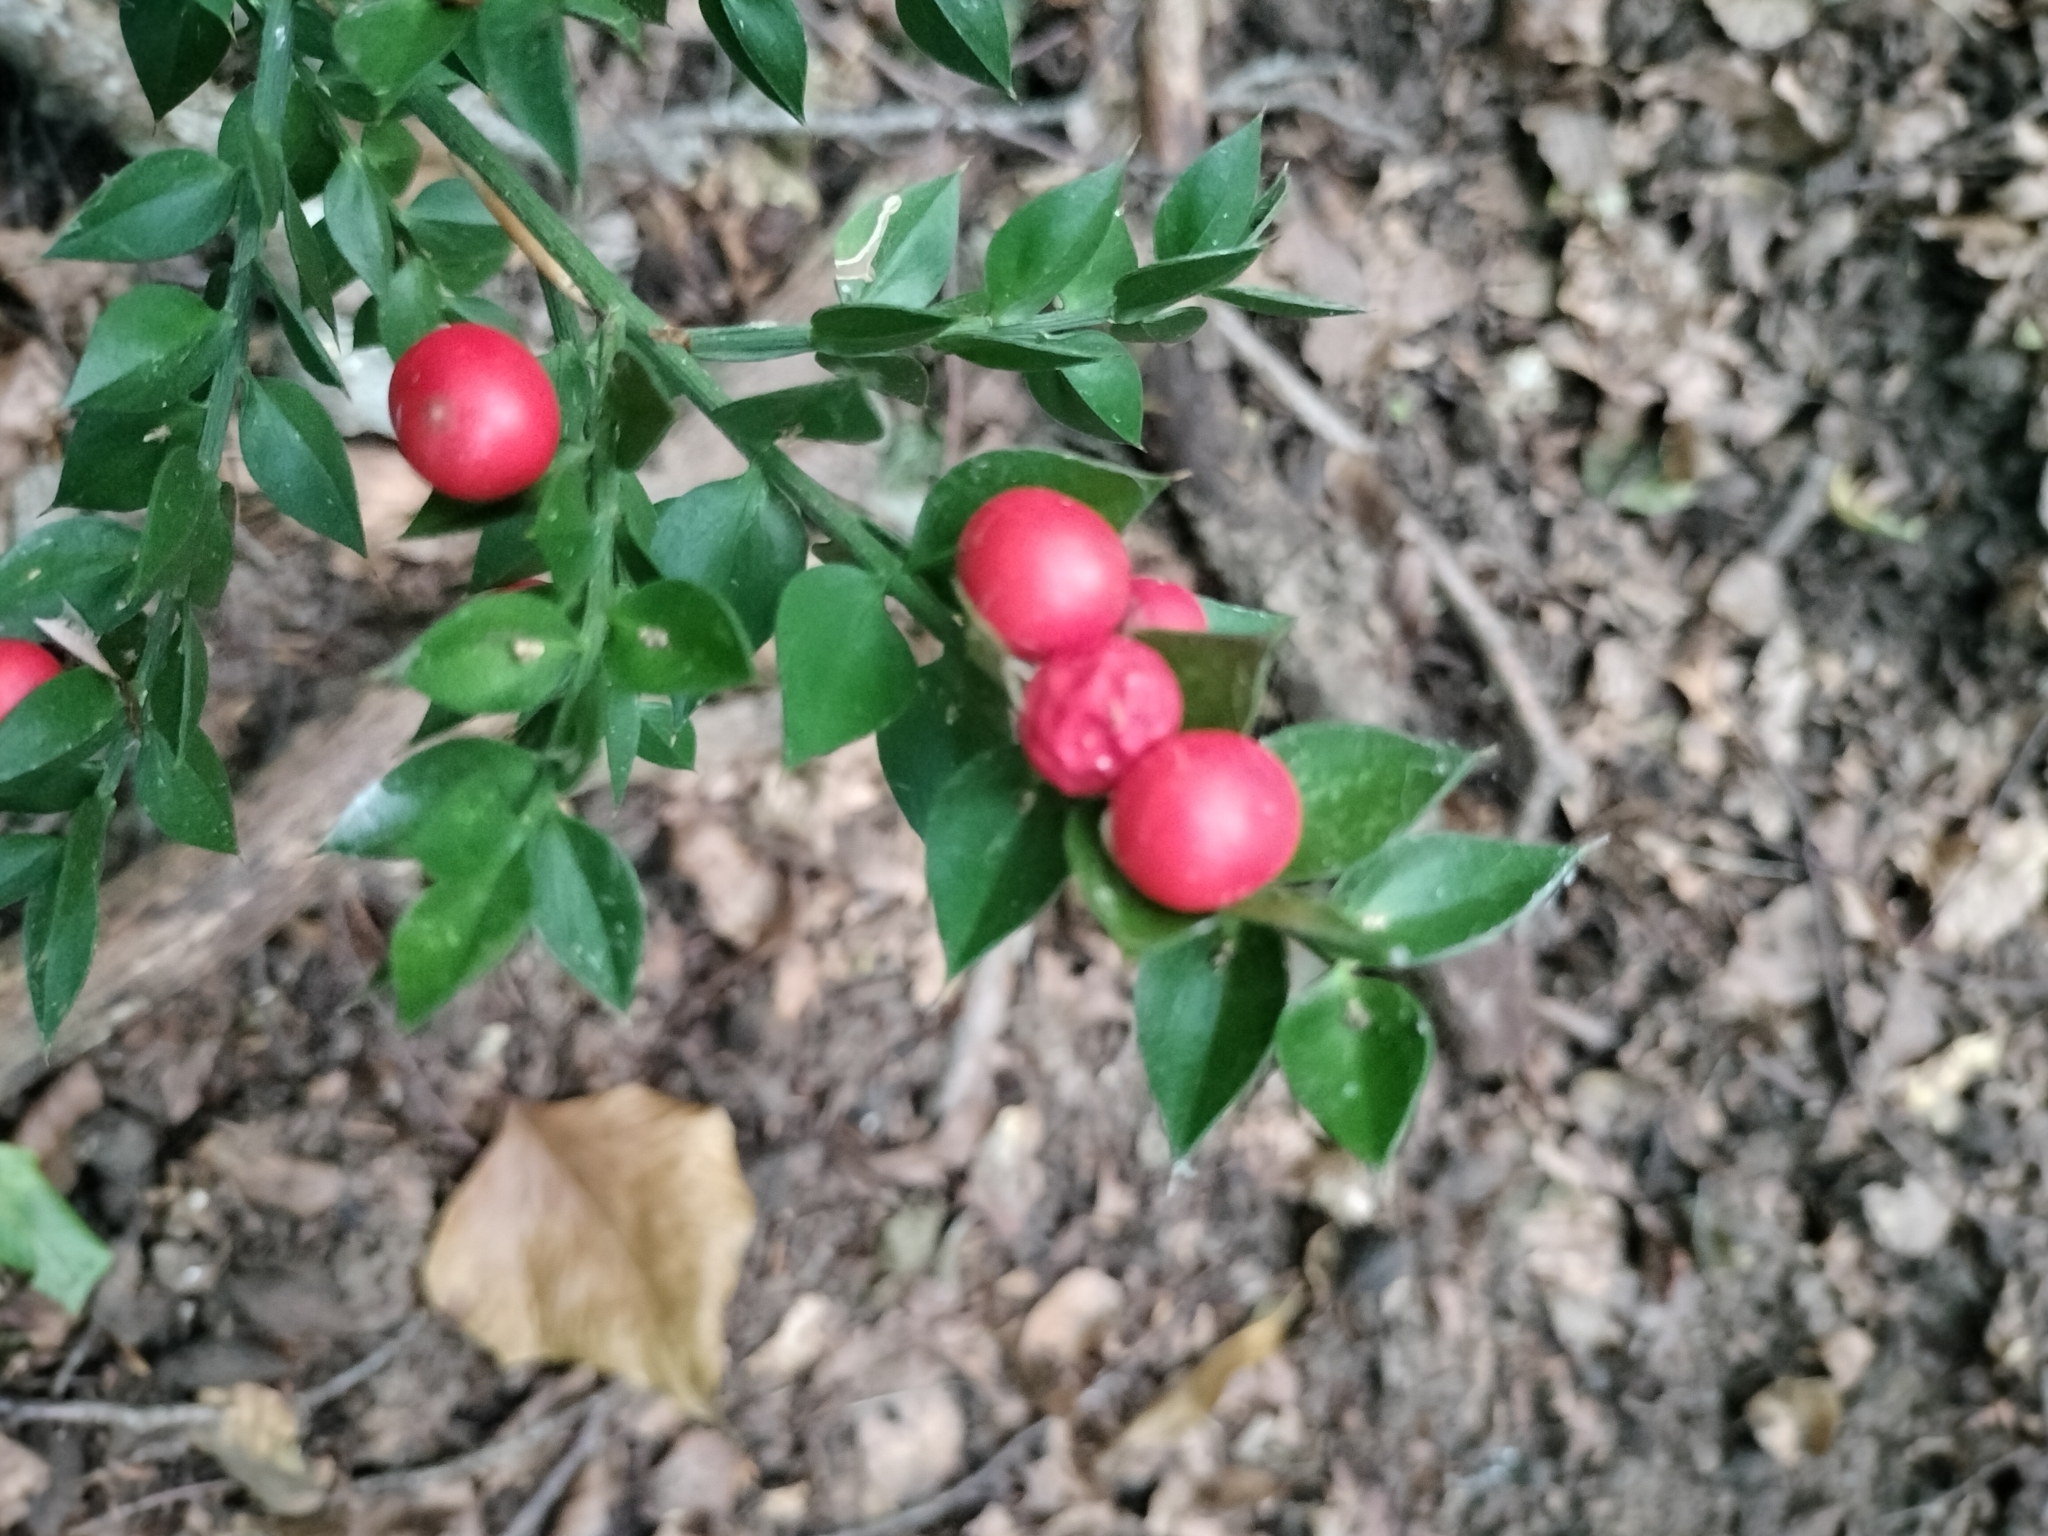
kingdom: Plantae
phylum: Tracheophyta
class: Liliopsida
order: Asparagales
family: Asparagaceae
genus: Ruscus
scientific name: Ruscus aculeatus
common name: Butcher's-broom
